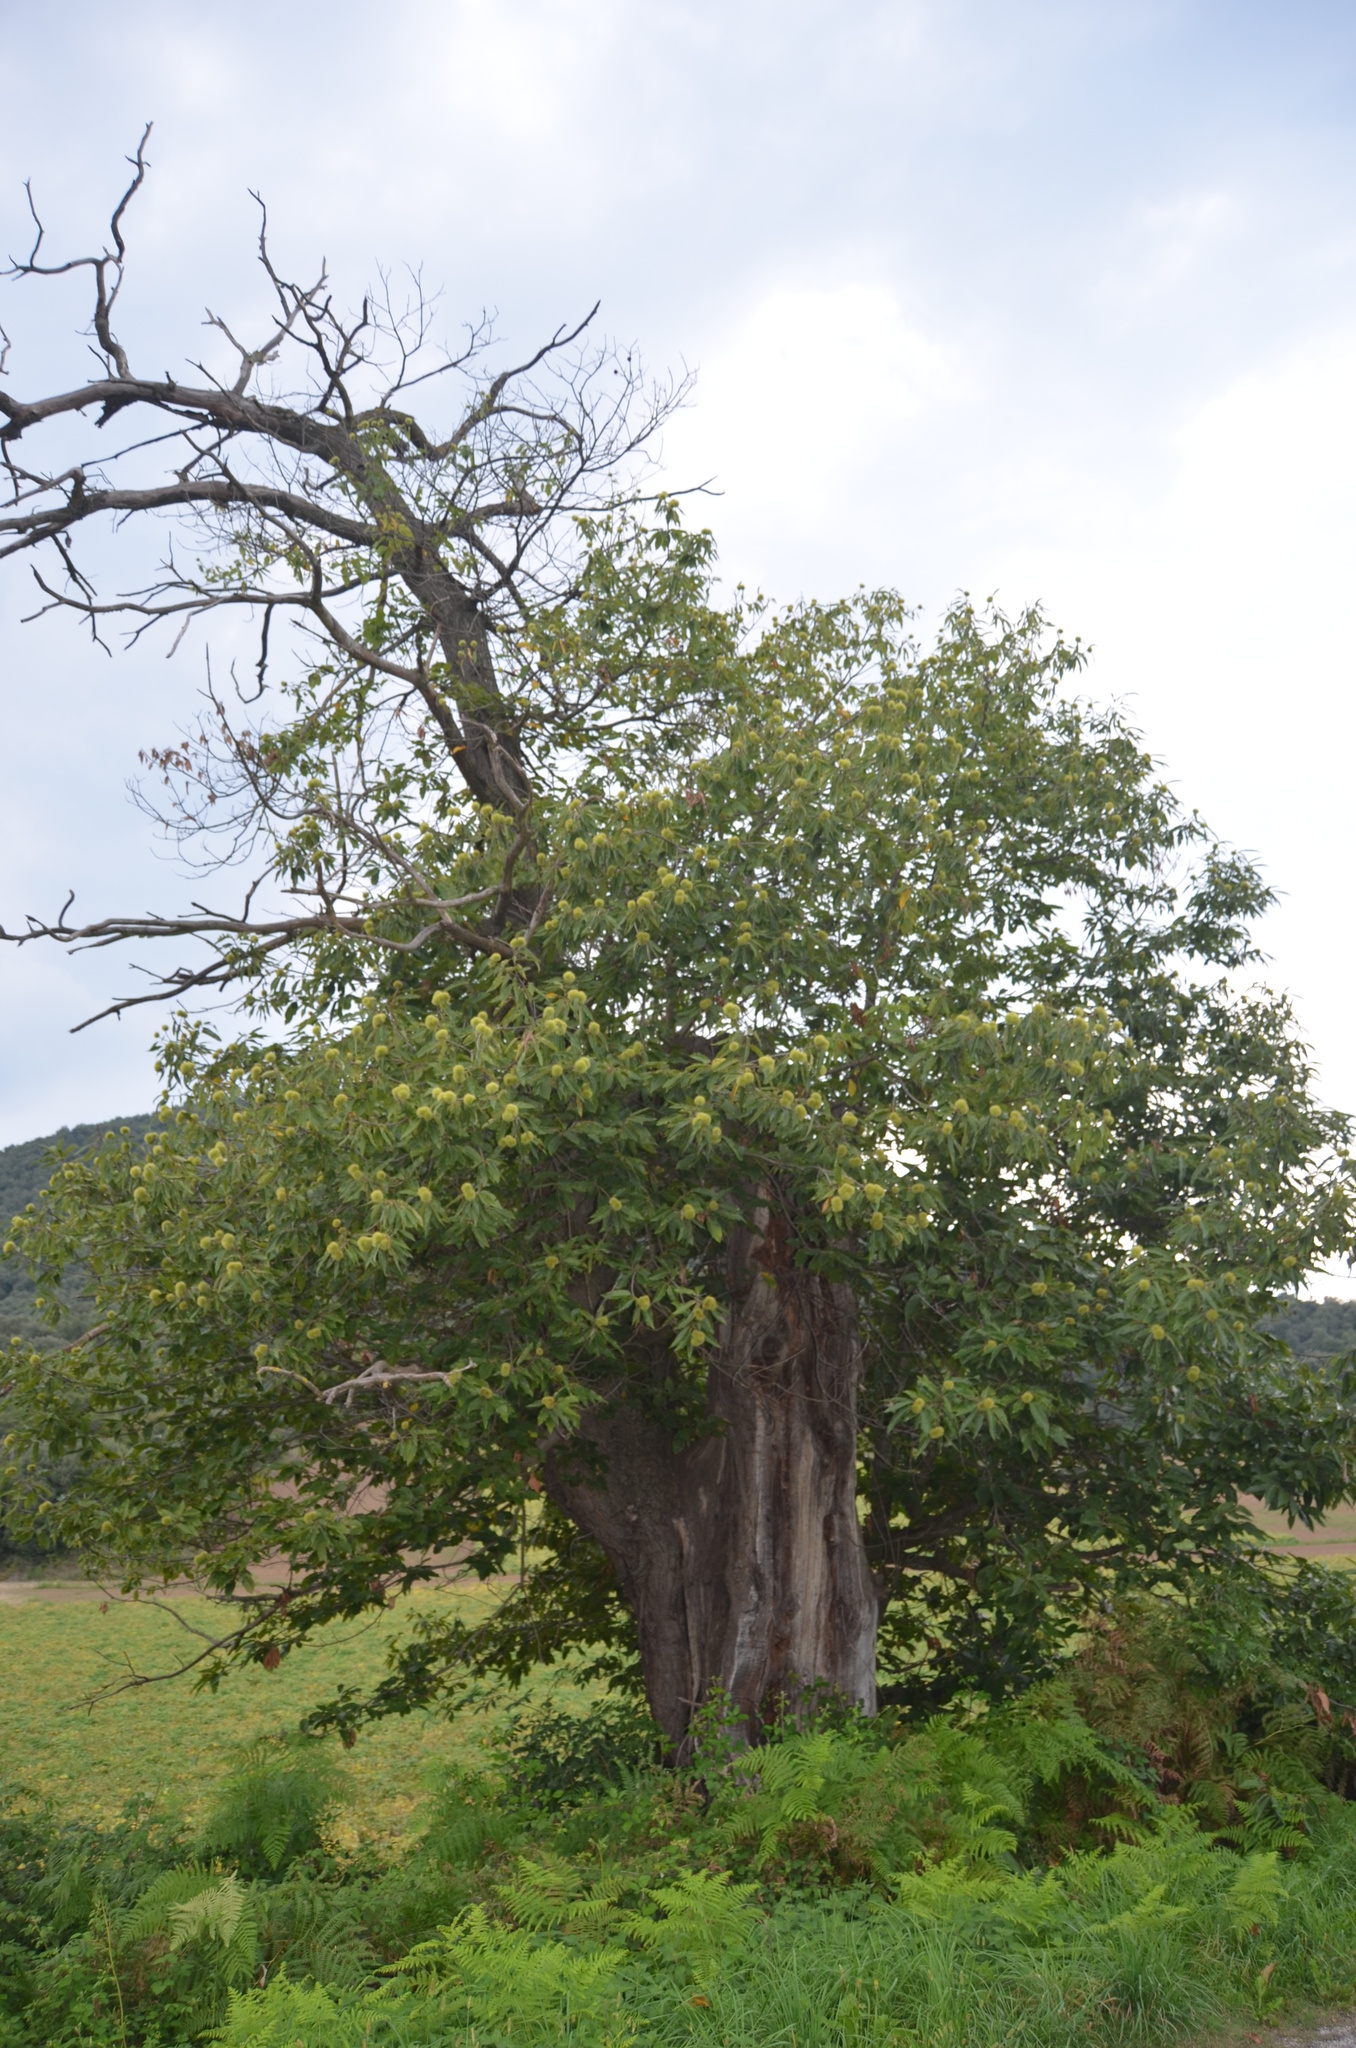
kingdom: Plantae
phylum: Tracheophyta
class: Magnoliopsida
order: Fagales
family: Fagaceae
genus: Castanea
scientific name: Castanea sativa
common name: Sweet chestnut
